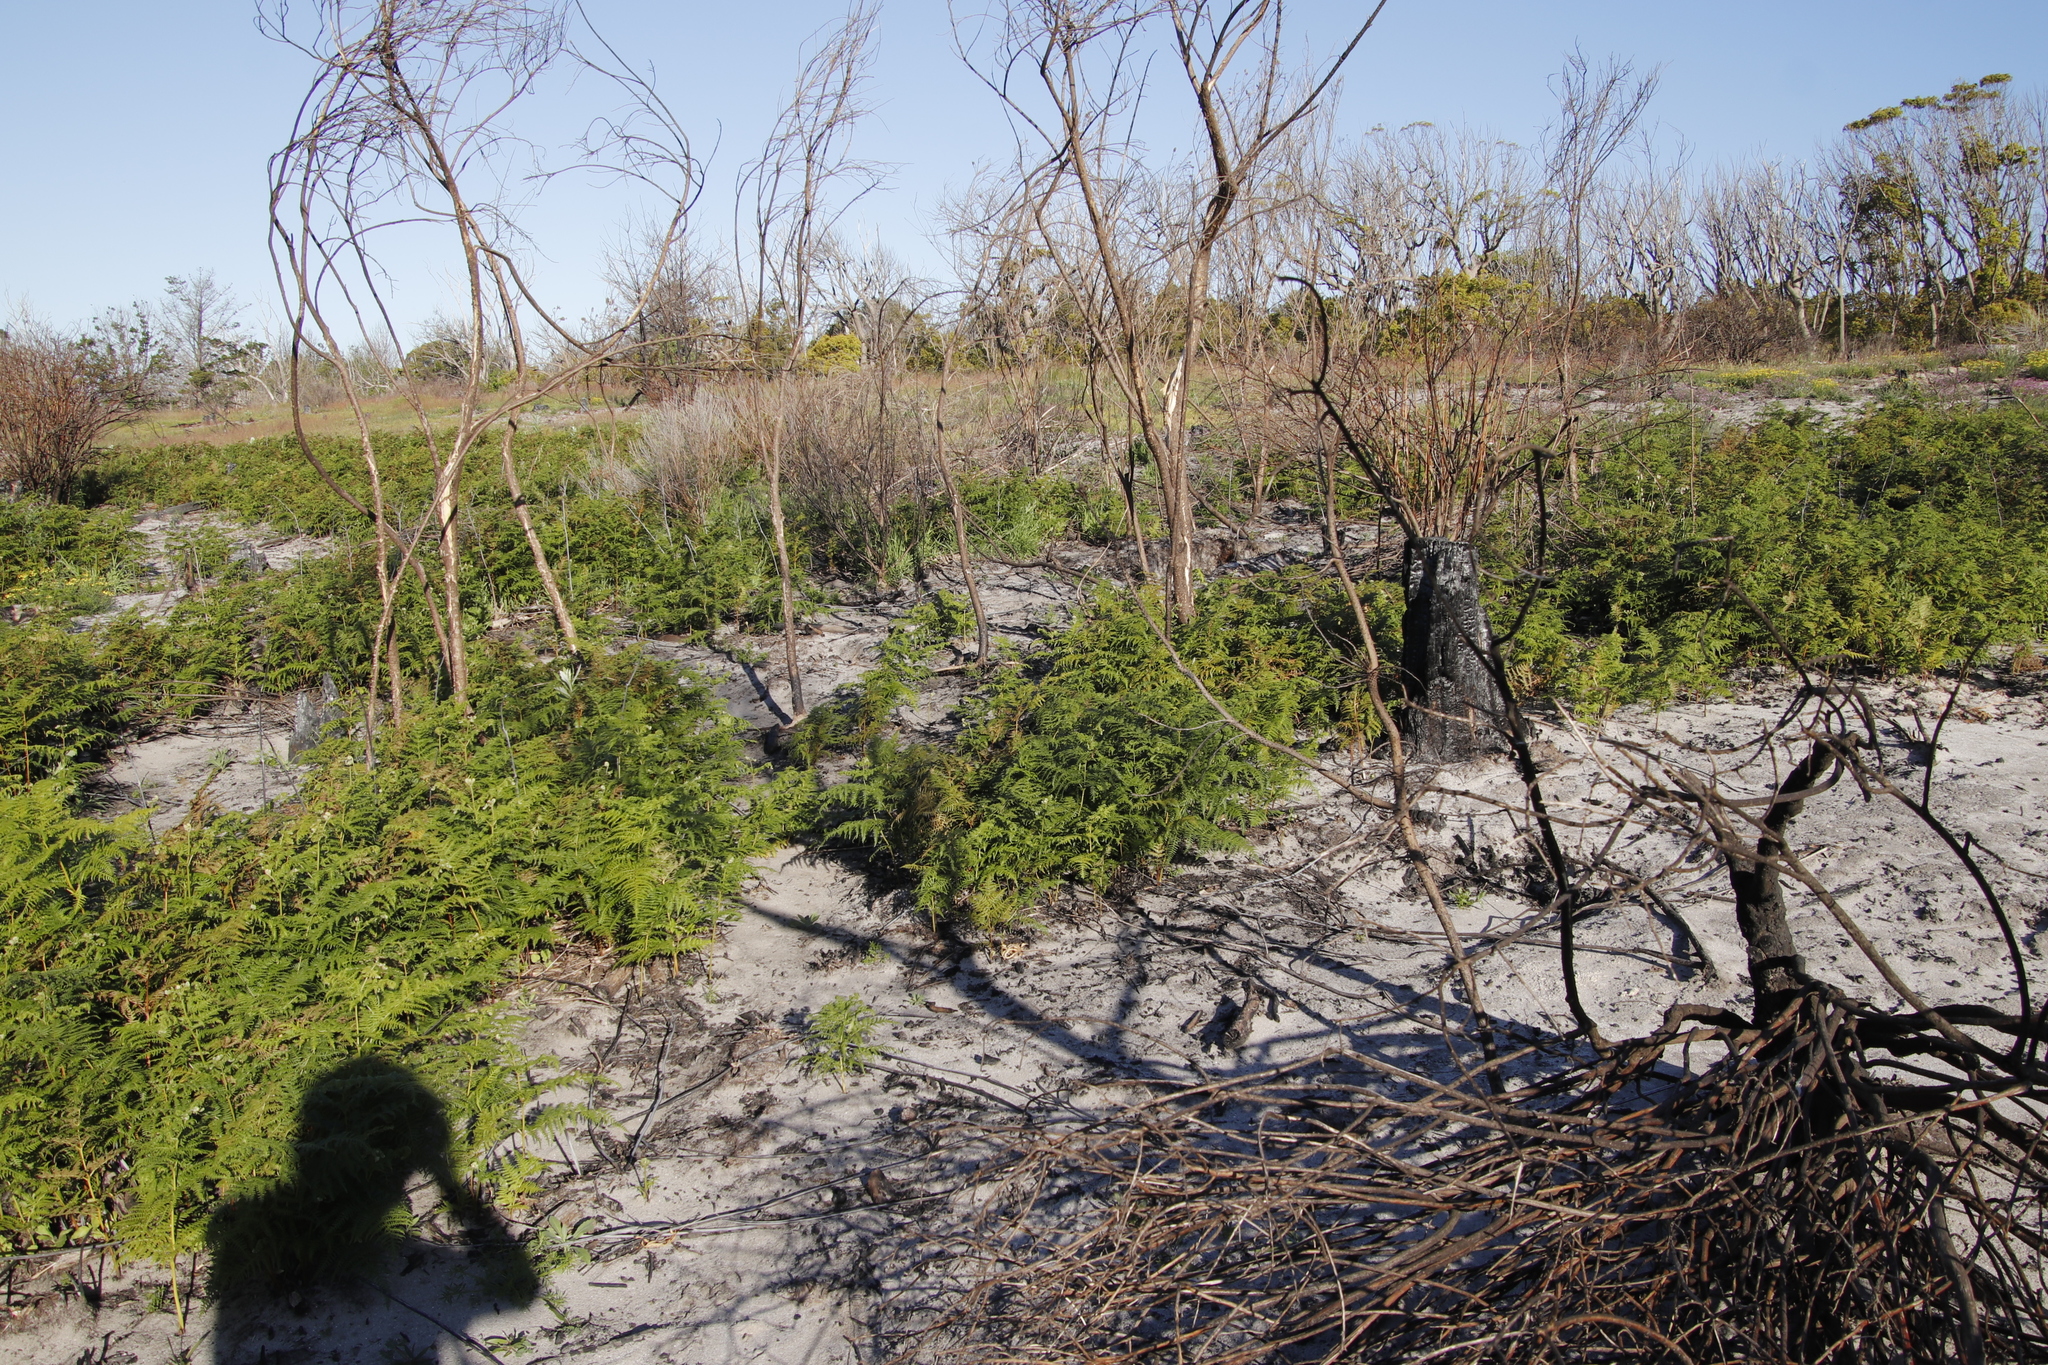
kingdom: Plantae
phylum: Tracheophyta
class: Polypodiopsida
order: Polypodiales
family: Dennstaedtiaceae
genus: Pteridium
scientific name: Pteridium aquilinum
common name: Bracken
